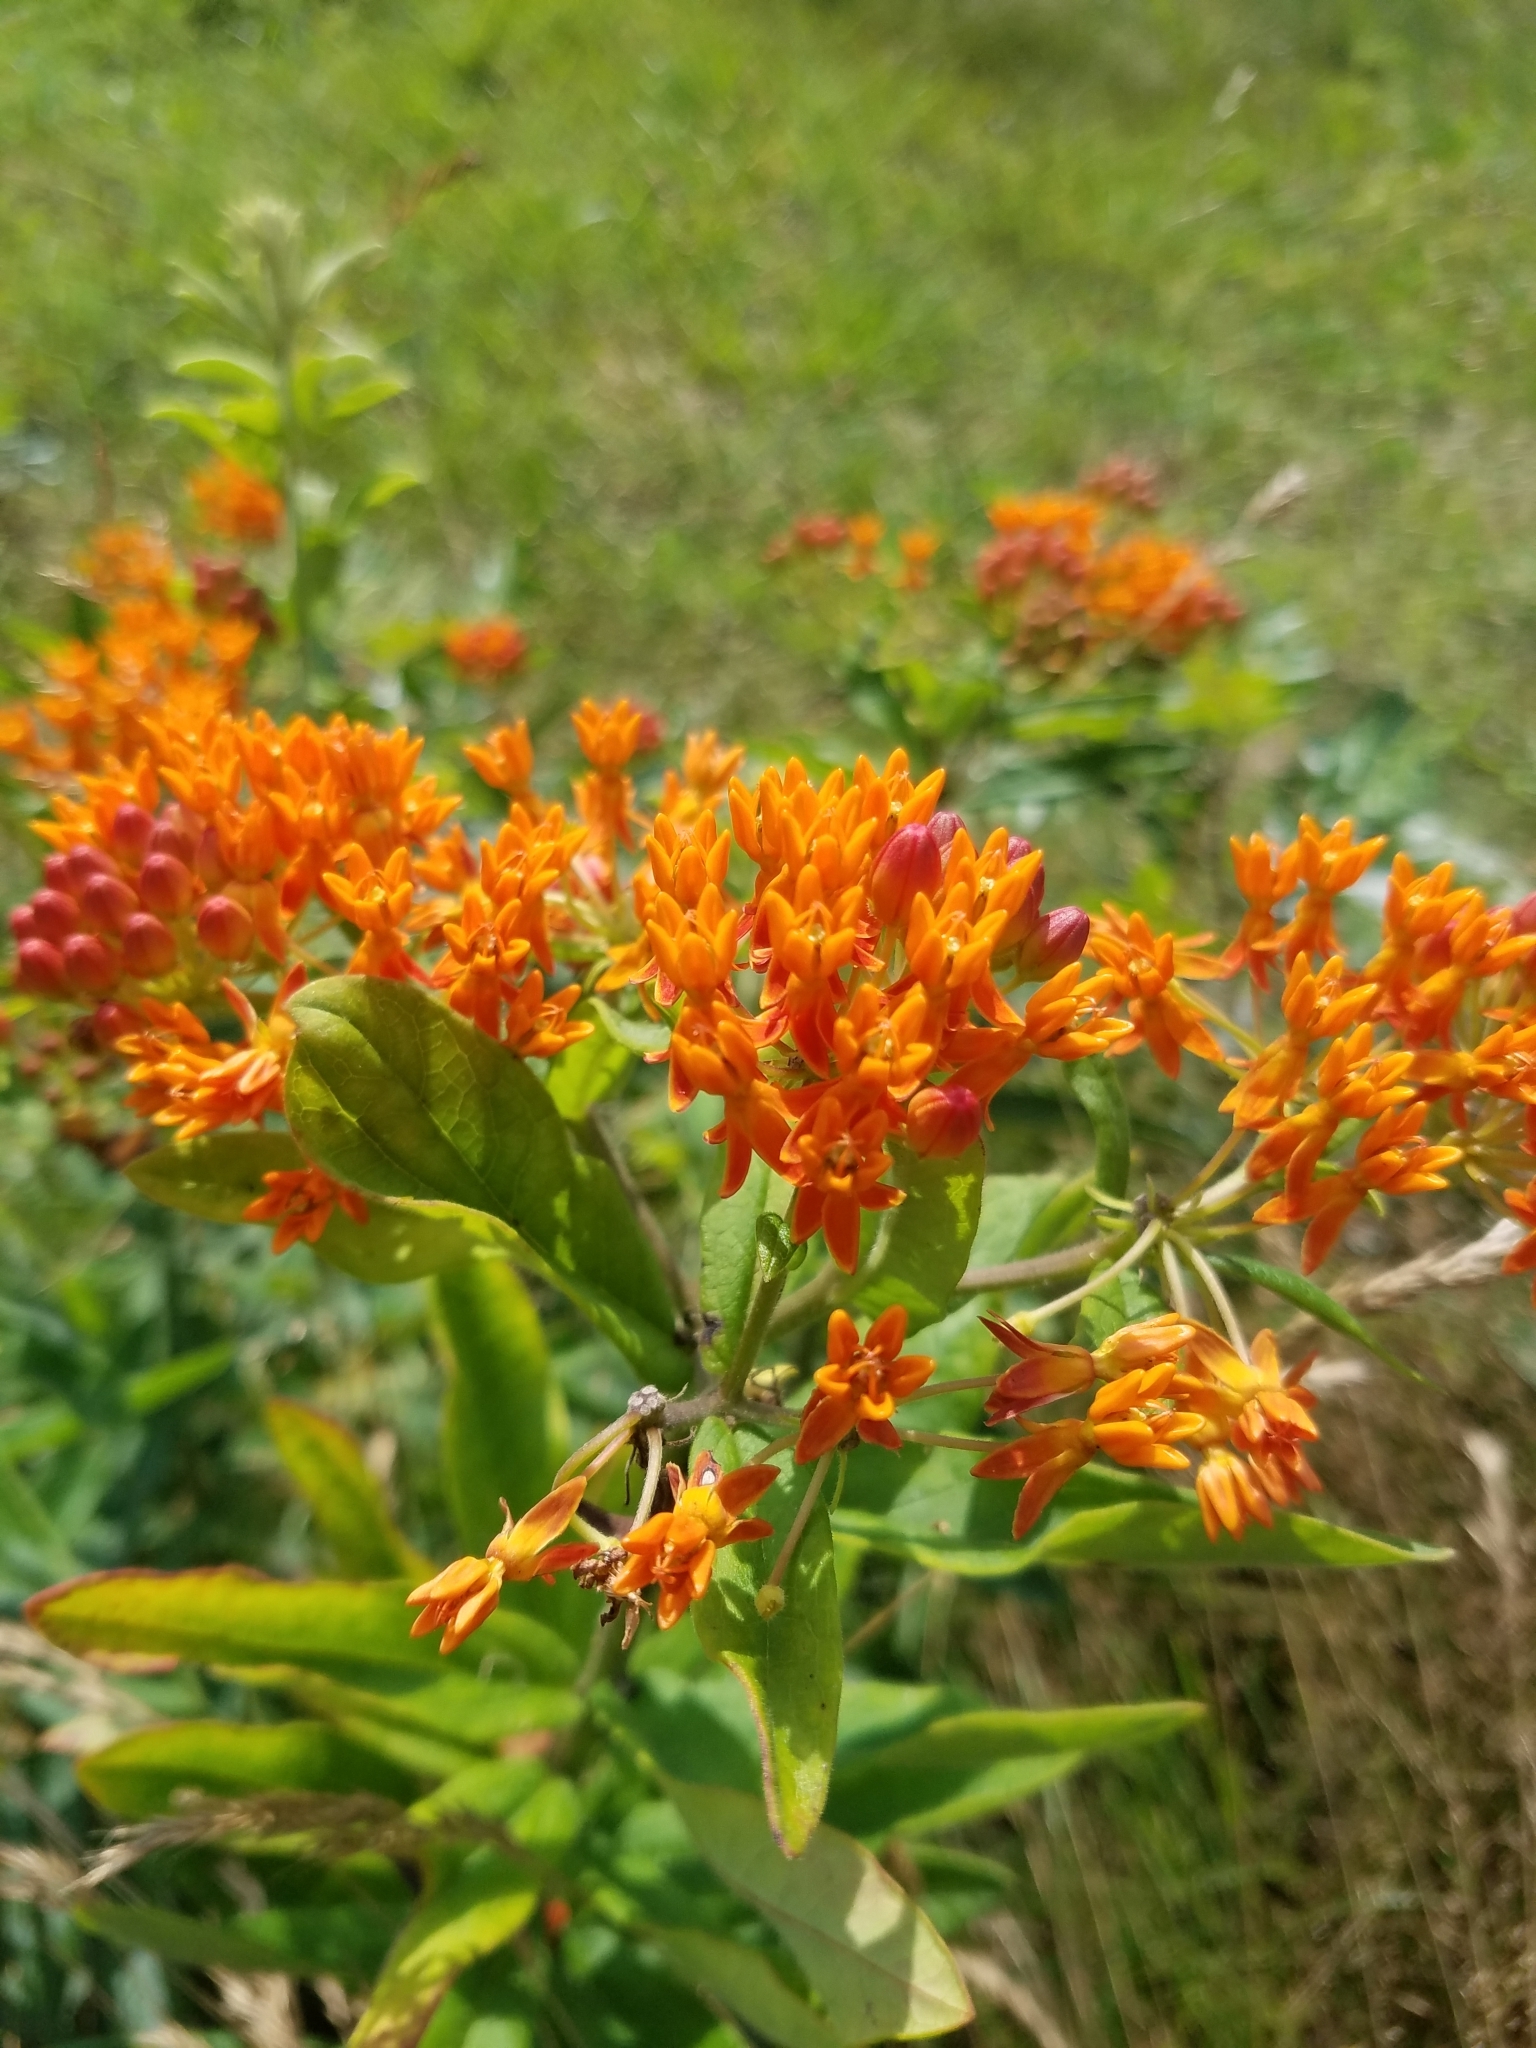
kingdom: Plantae
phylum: Tracheophyta
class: Magnoliopsida
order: Gentianales
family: Apocynaceae
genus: Asclepias
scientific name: Asclepias tuberosa
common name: Butterfly milkweed
